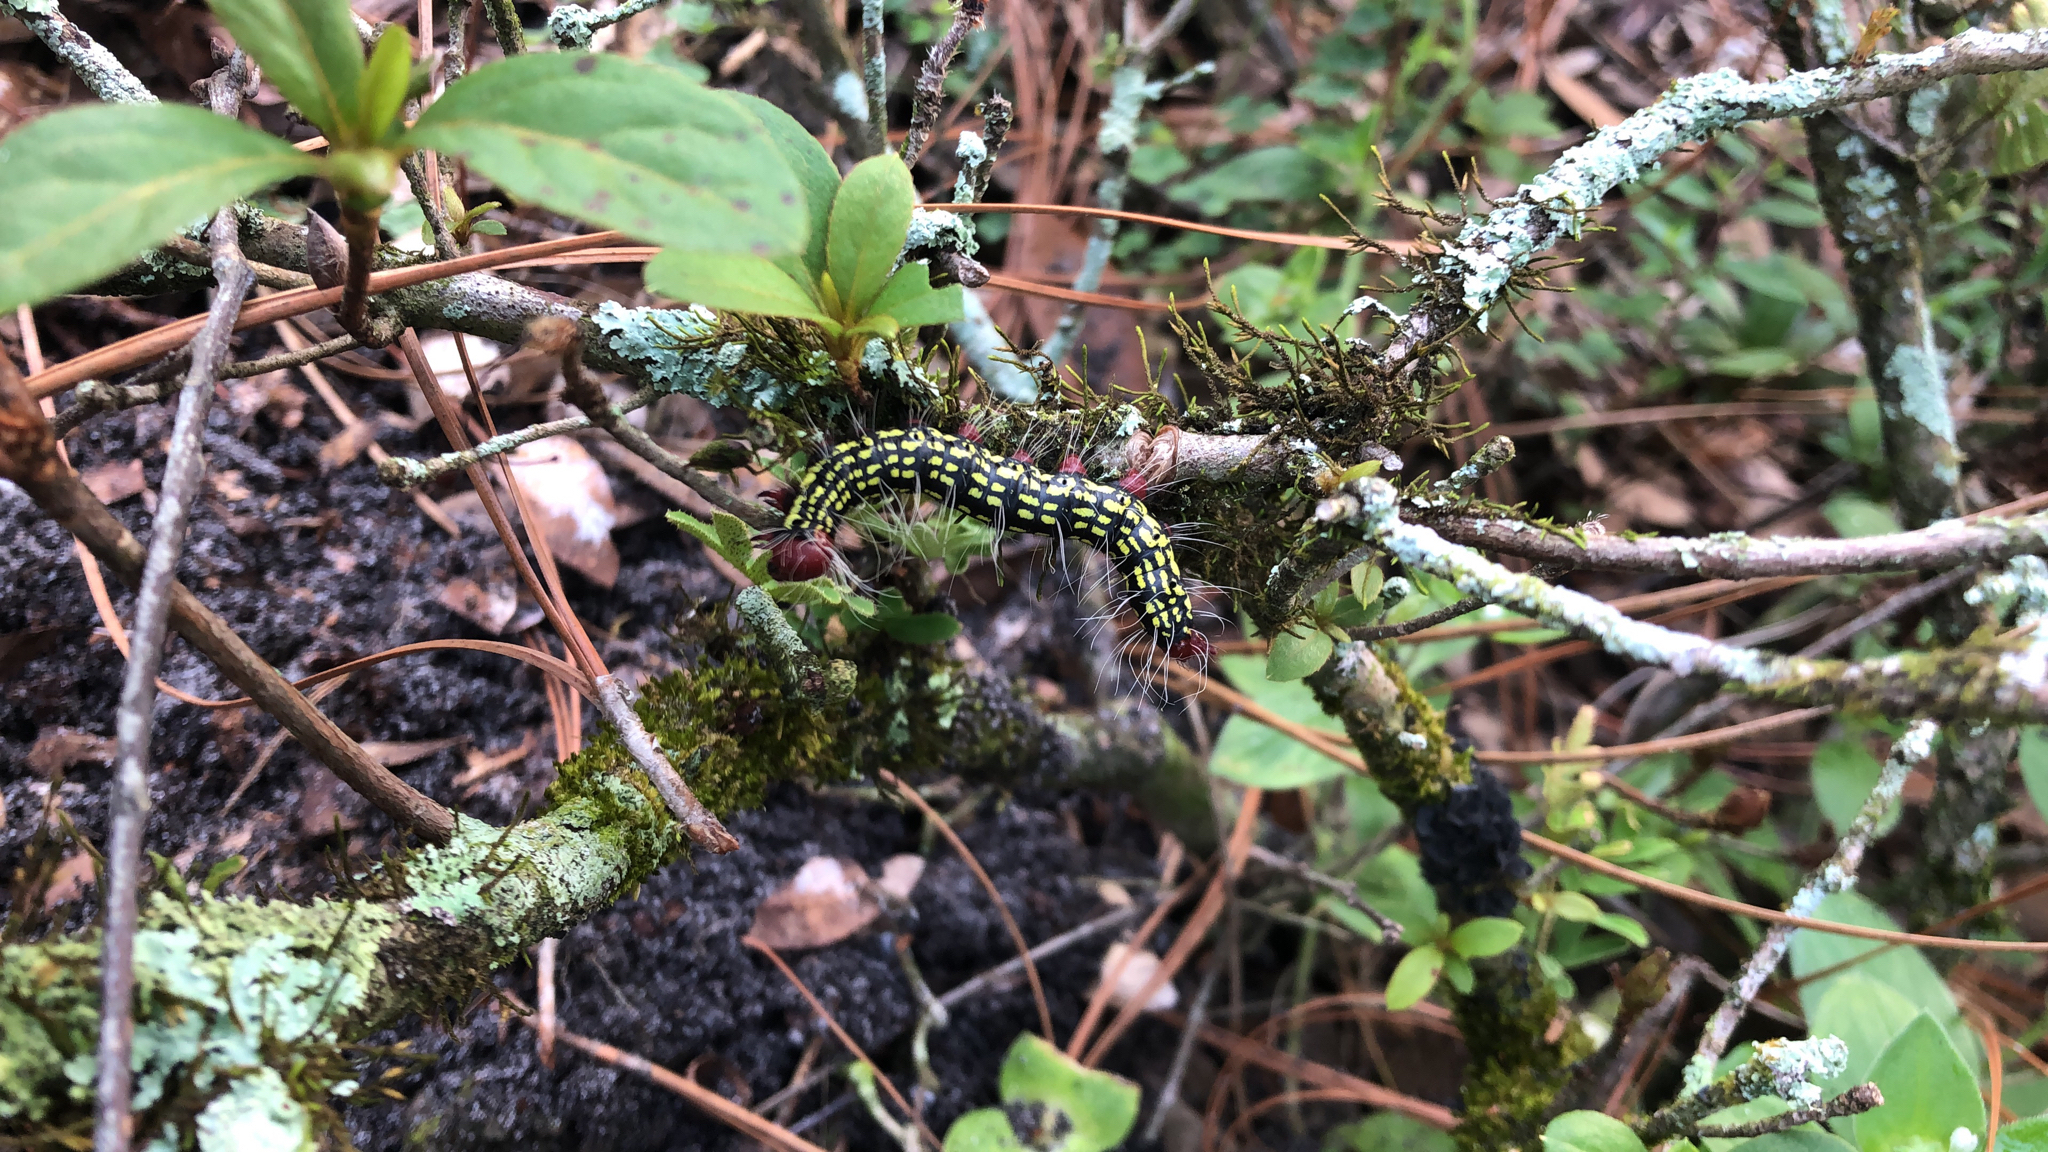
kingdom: Animalia
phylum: Arthropoda
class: Insecta
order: Lepidoptera
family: Notodontidae
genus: Datana
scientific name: Datana major
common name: Azalea caterpillar
